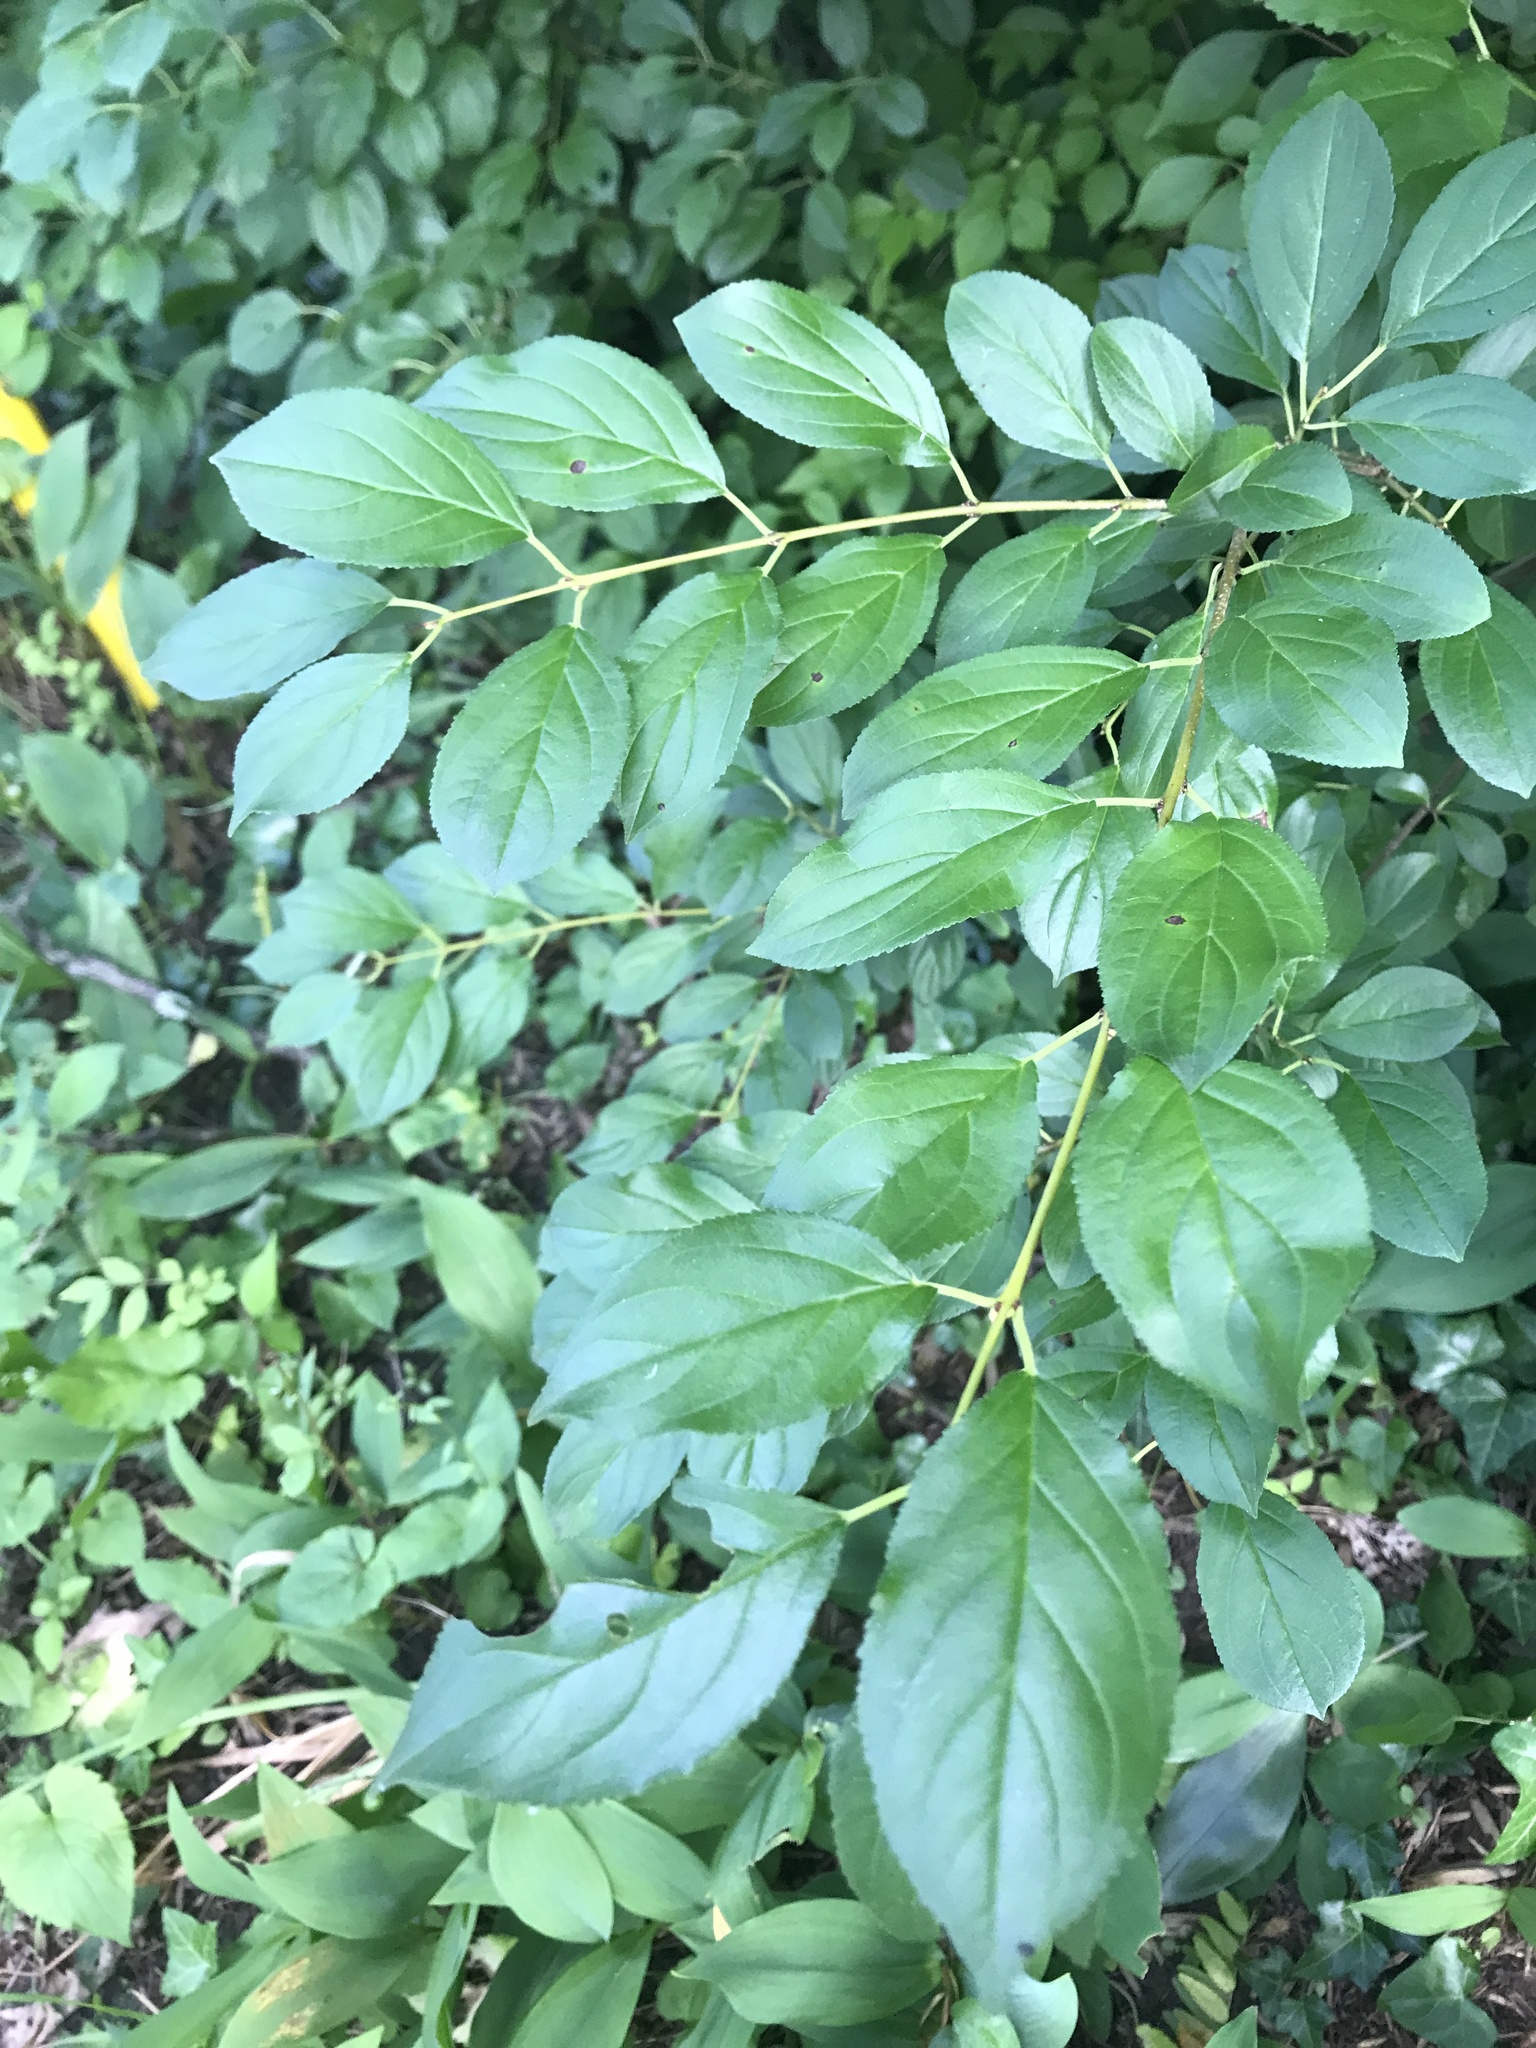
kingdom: Plantae
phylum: Tracheophyta
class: Magnoliopsida
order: Rosales
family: Rhamnaceae
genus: Rhamnus
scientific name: Rhamnus cathartica
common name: Common buckthorn
